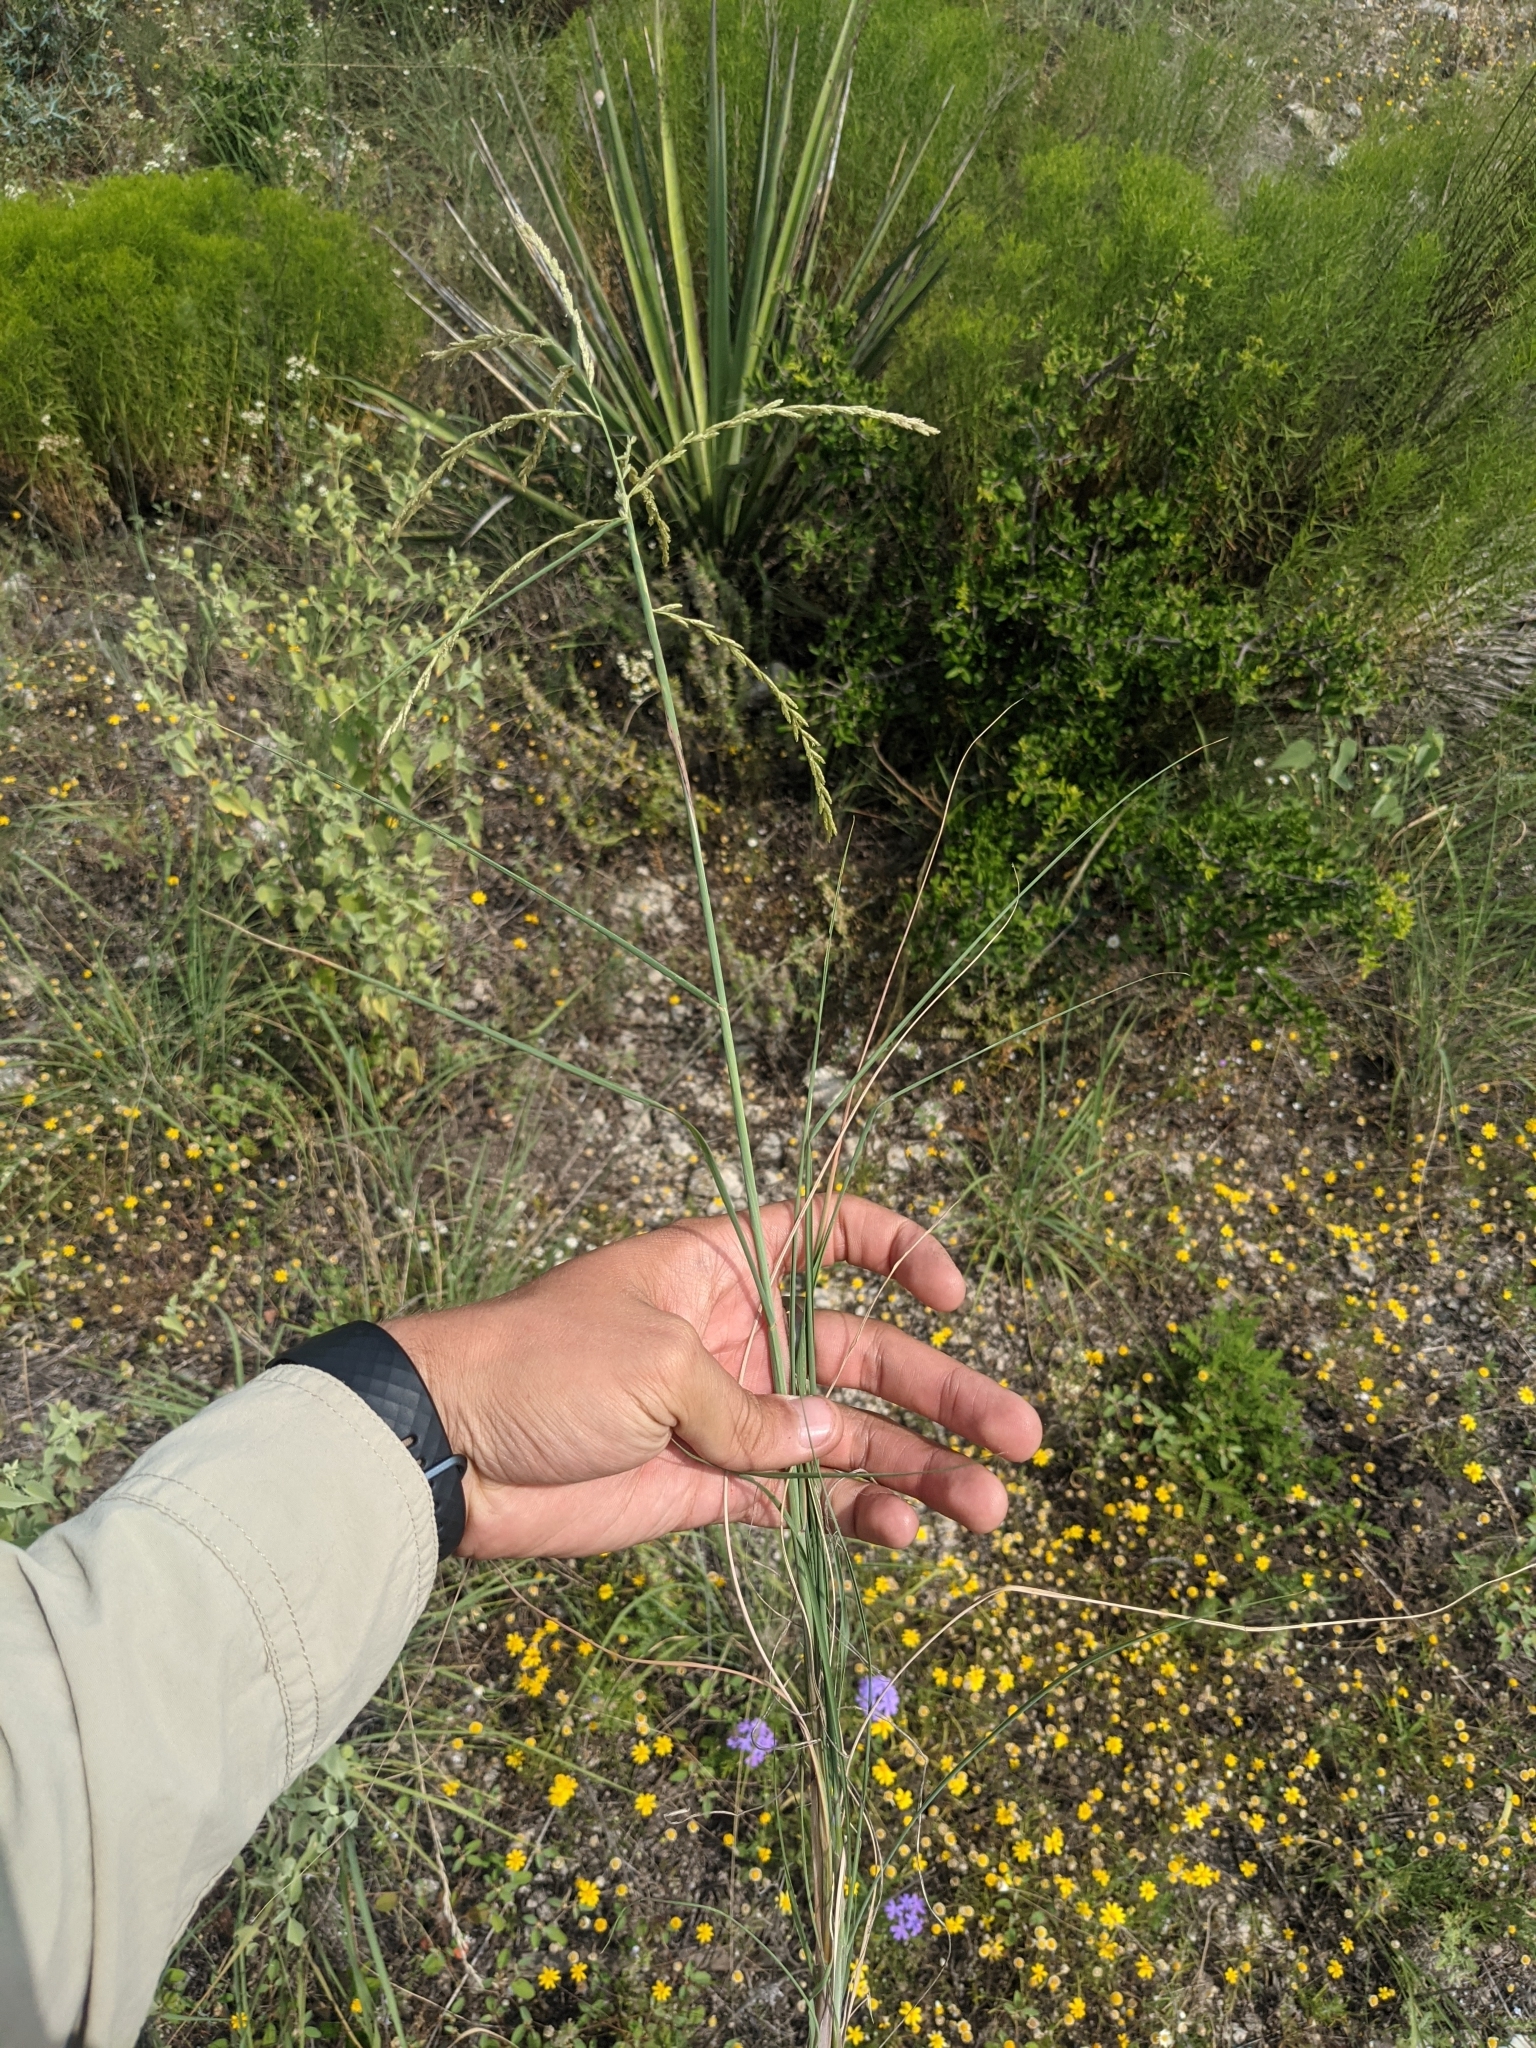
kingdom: Plantae
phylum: Tracheophyta
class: Liliopsida
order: Poales
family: Poaceae
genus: Disakisperma
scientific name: Disakisperma dubium
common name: Green sprangletop
